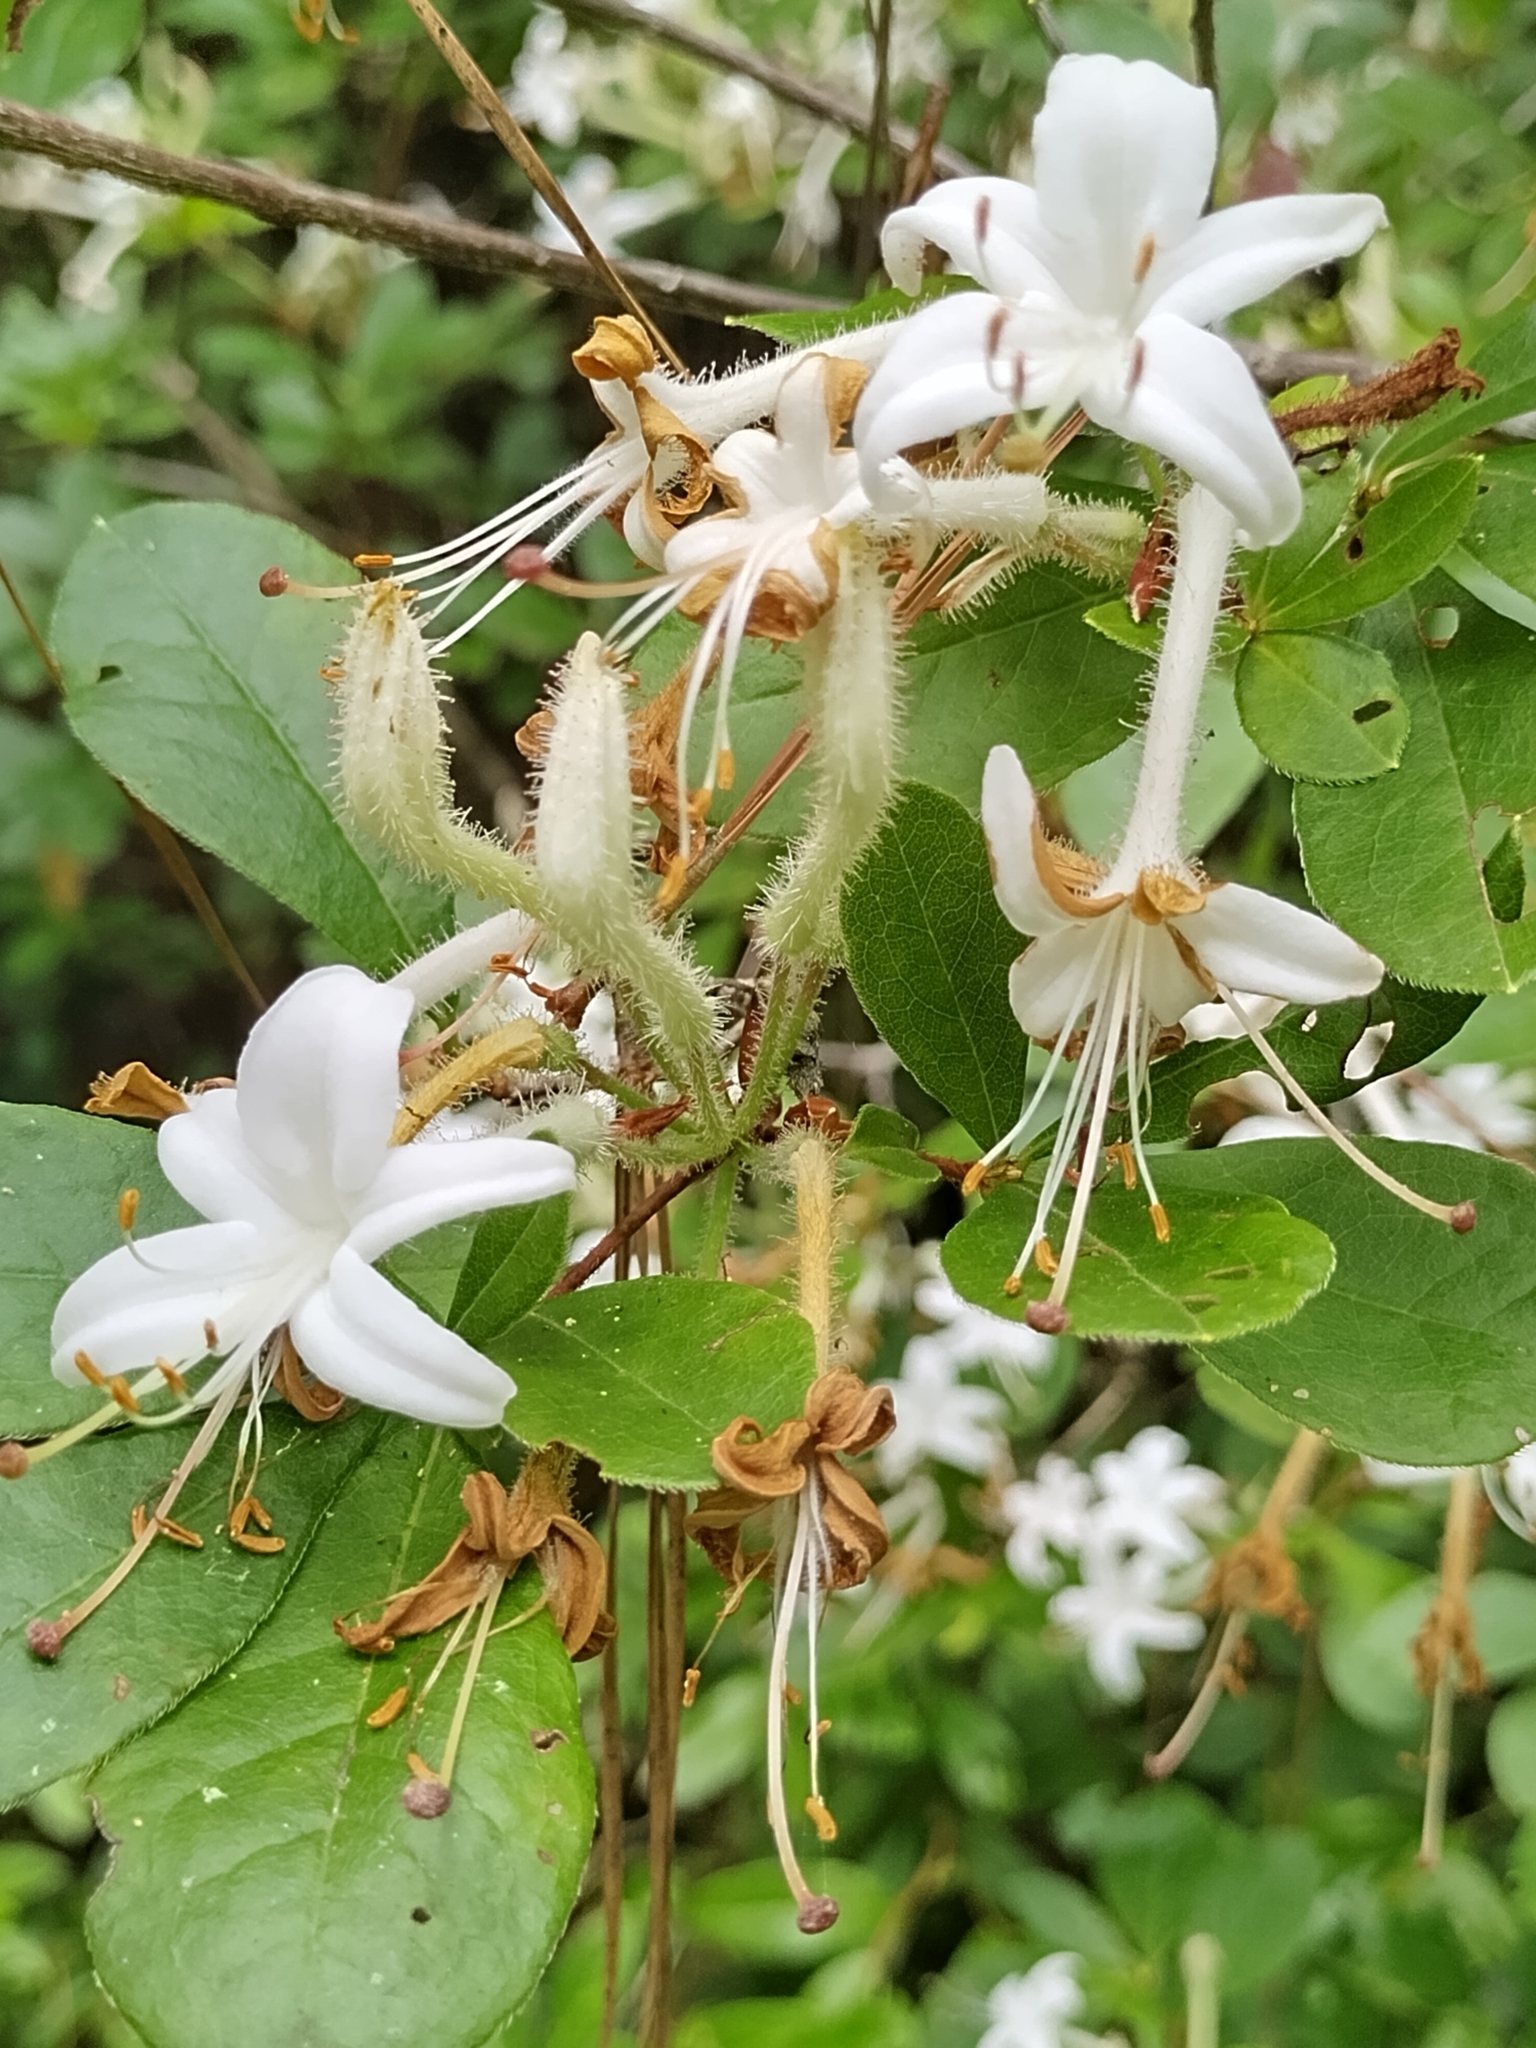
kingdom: Plantae
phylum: Tracheophyta
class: Magnoliopsida
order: Ericales
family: Ericaceae
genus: Rhododendron
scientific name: Rhododendron serrulatum
